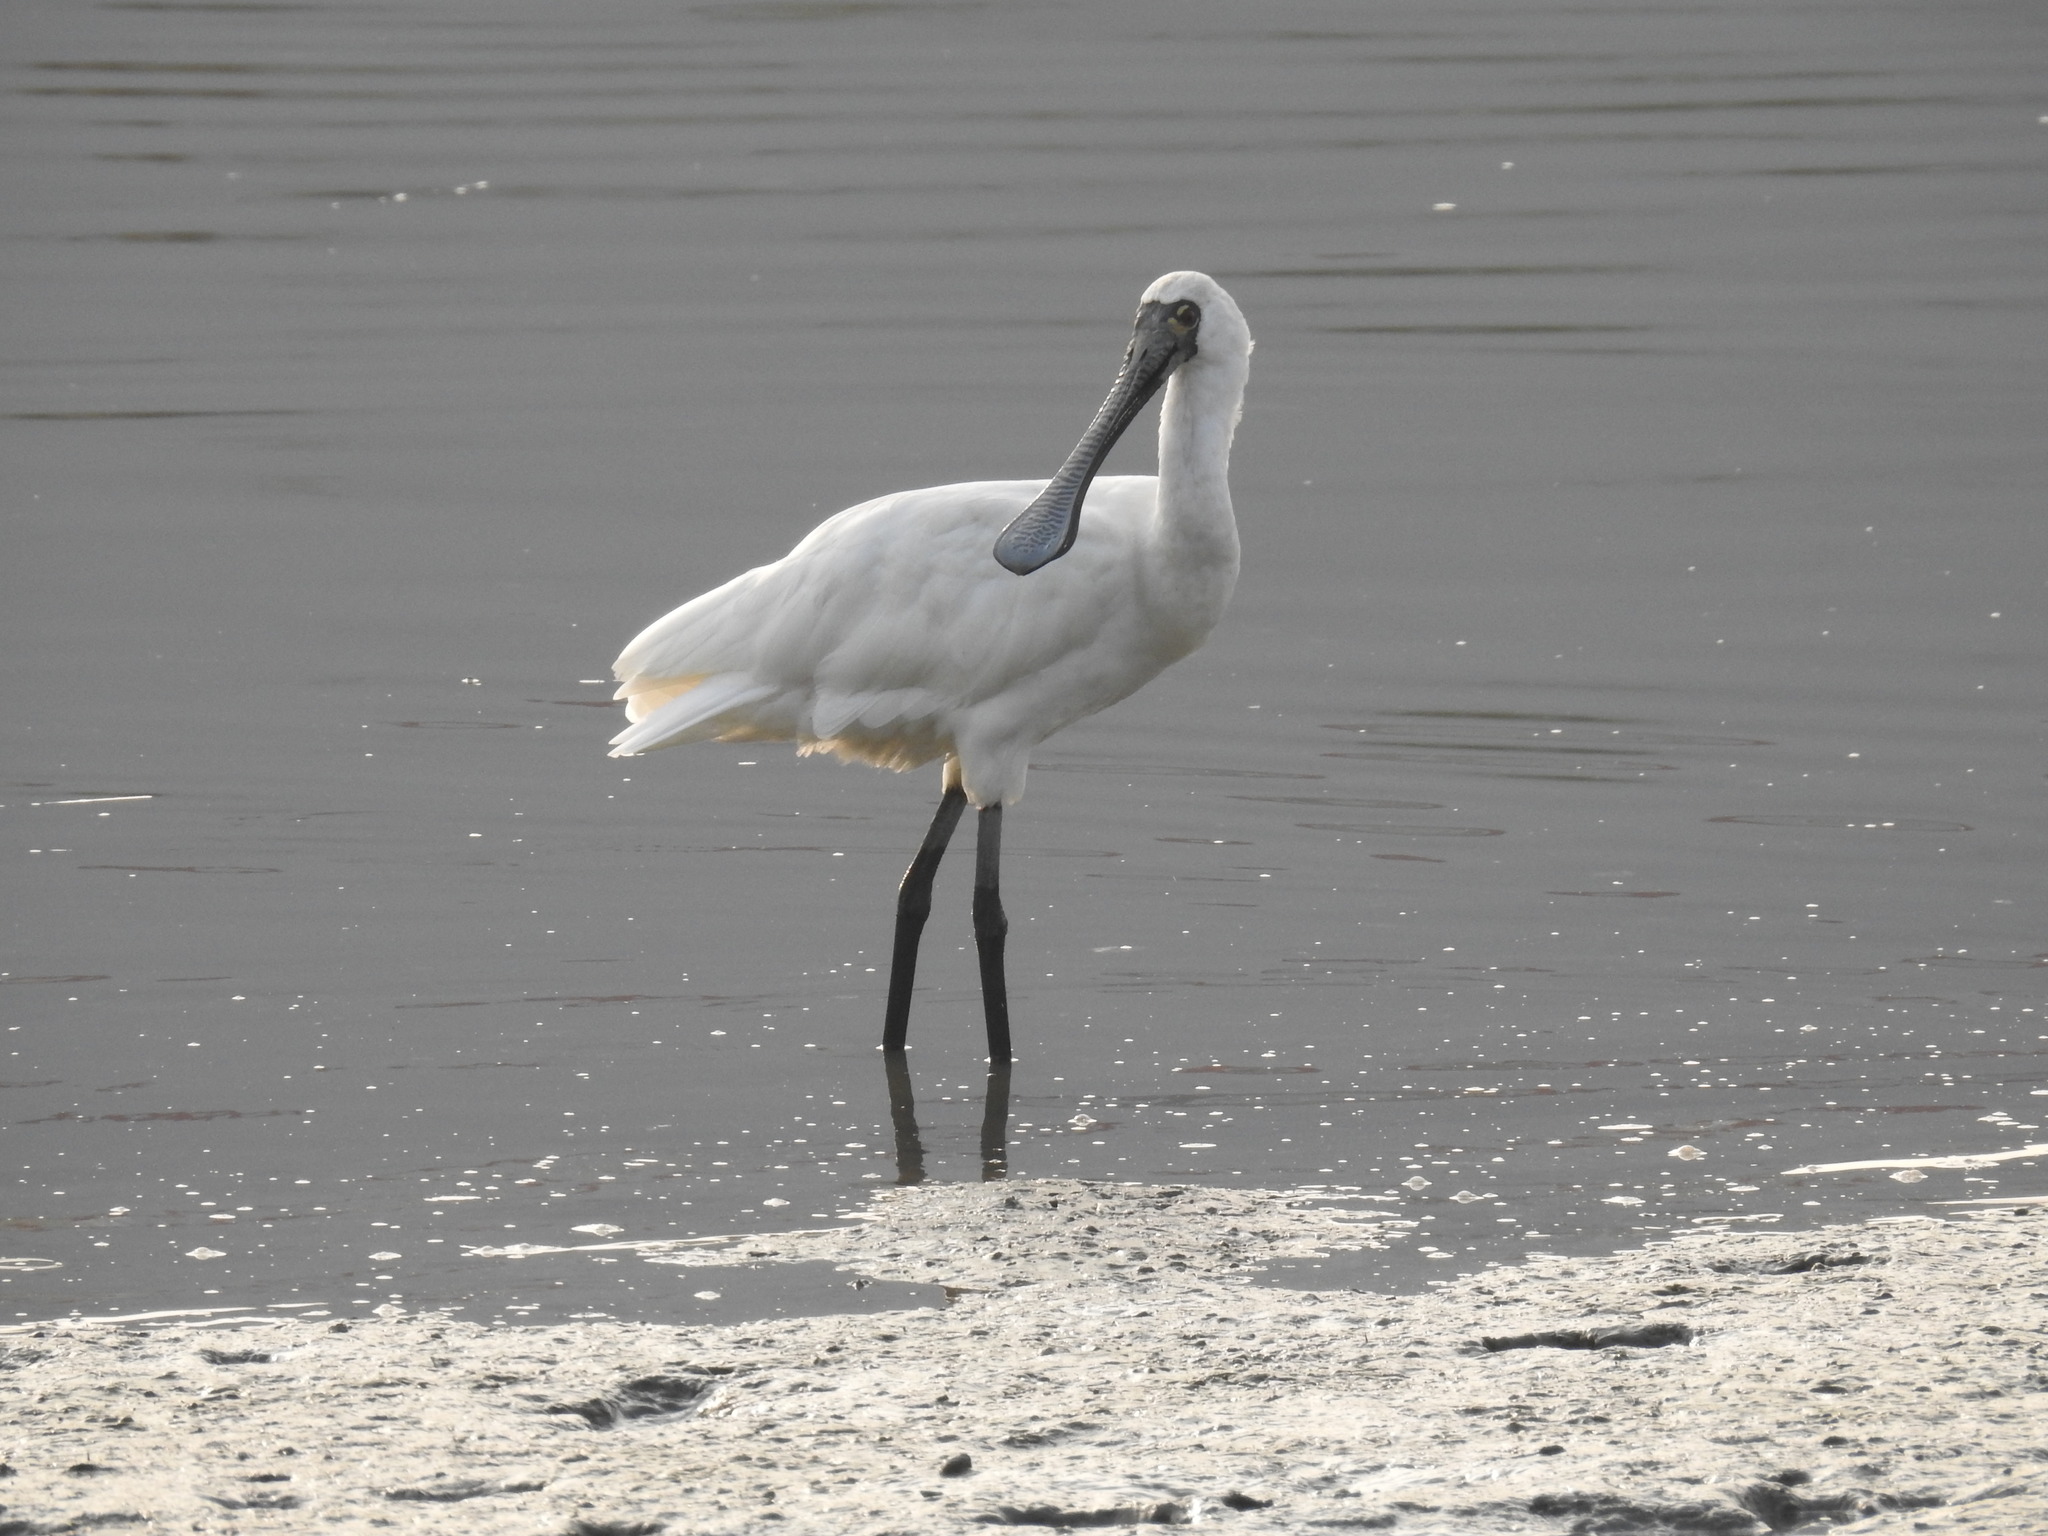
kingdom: Animalia
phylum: Chordata
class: Aves
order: Pelecaniformes
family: Threskiornithidae
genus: Platalea
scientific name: Platalea minor
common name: Black-faced spoonbill
